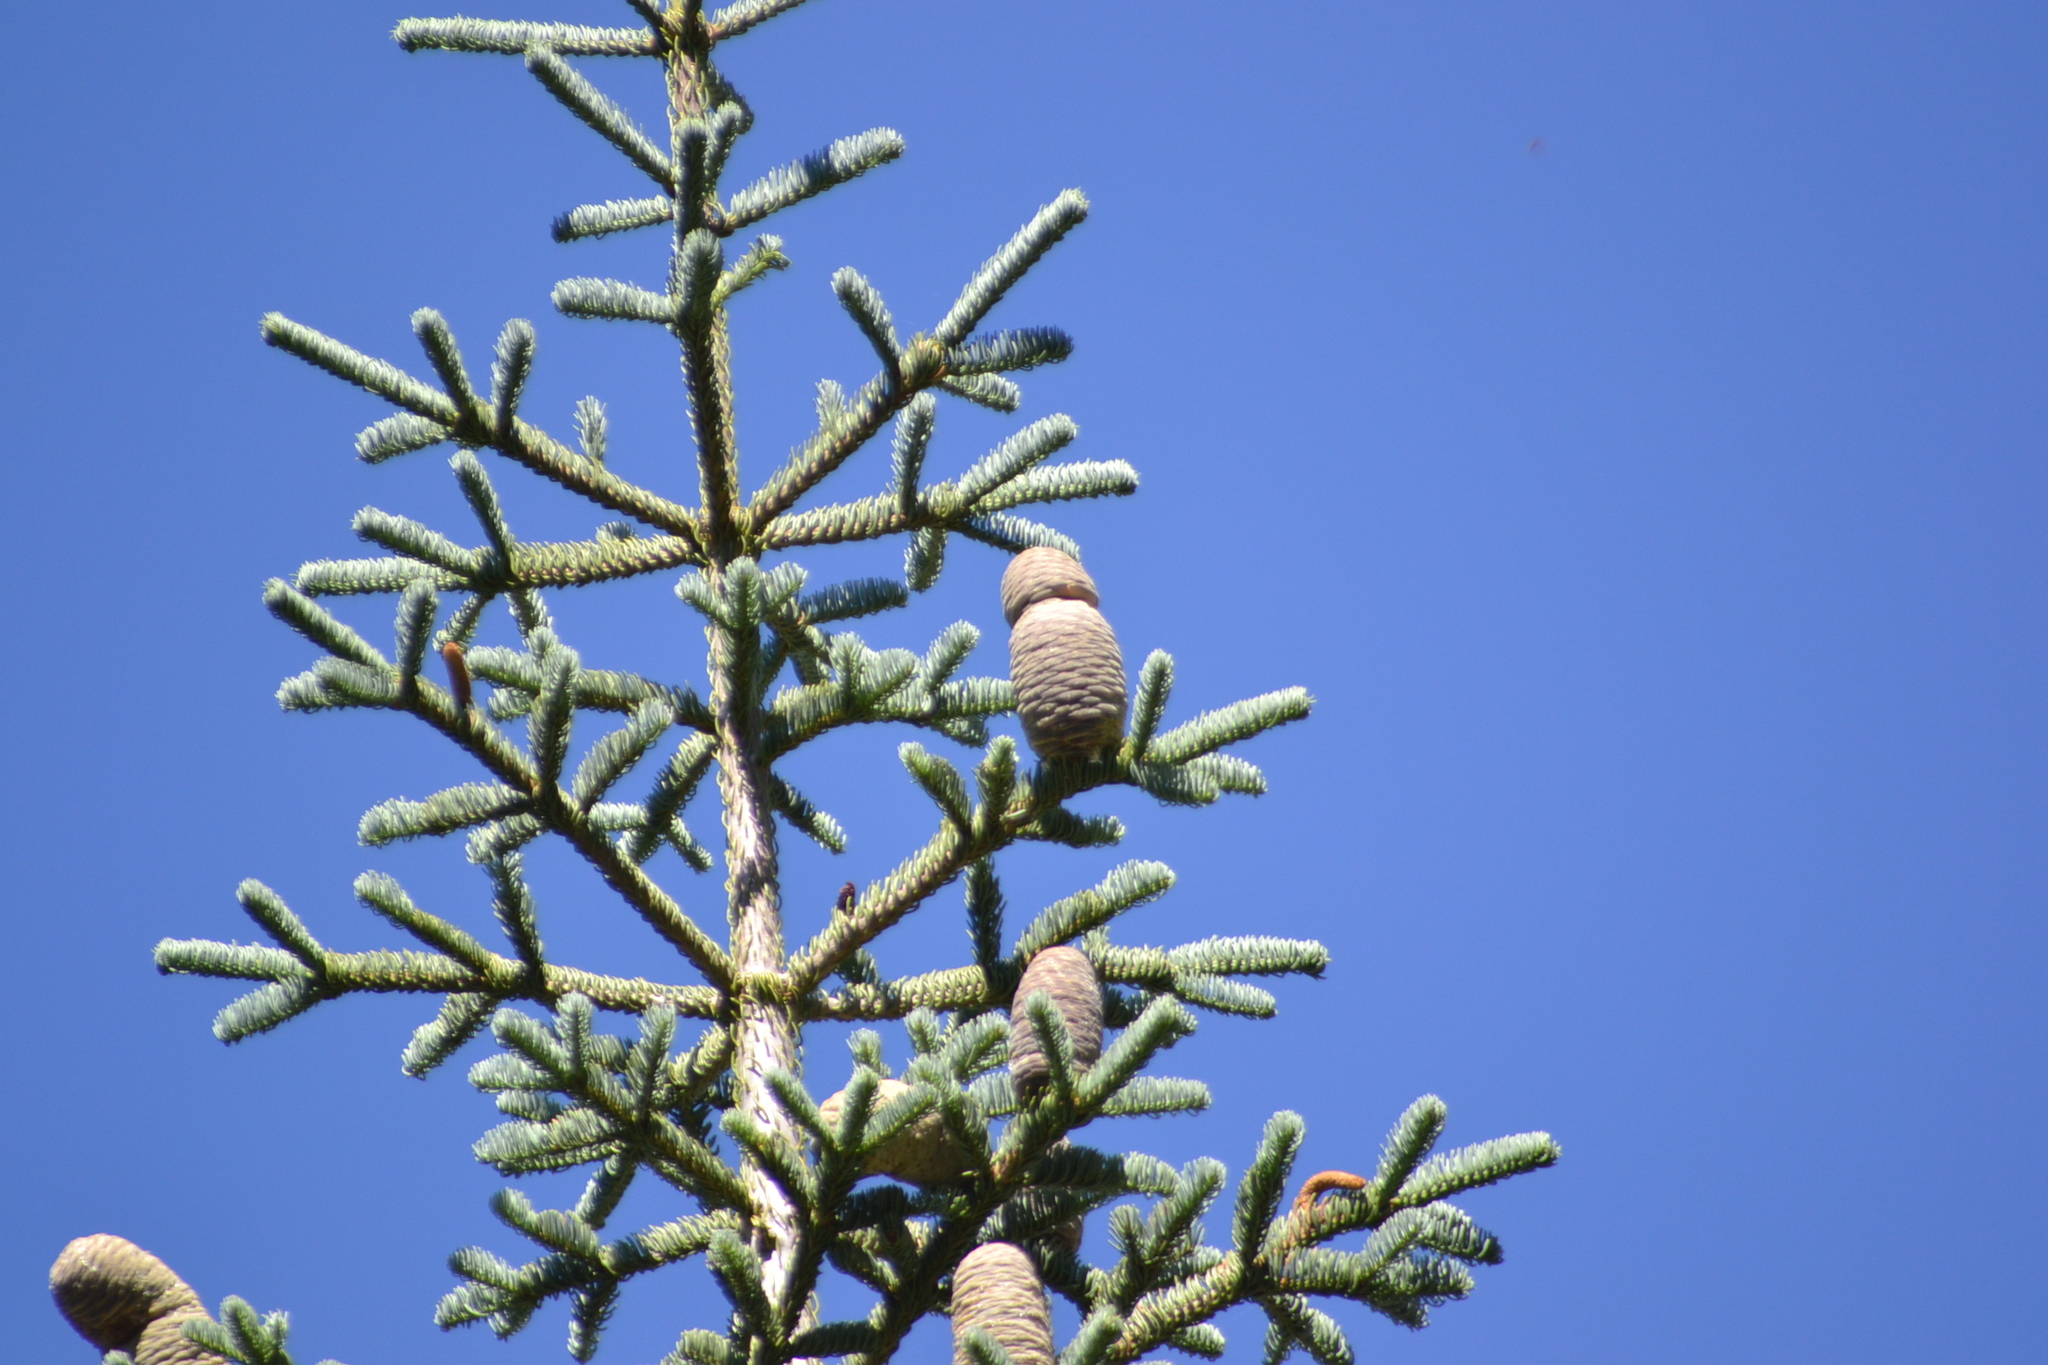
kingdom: Plantae
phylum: Tracheophyta
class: Pinopsida
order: Pinales
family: Pinaceae
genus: Abies
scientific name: Abies magnifica bis
